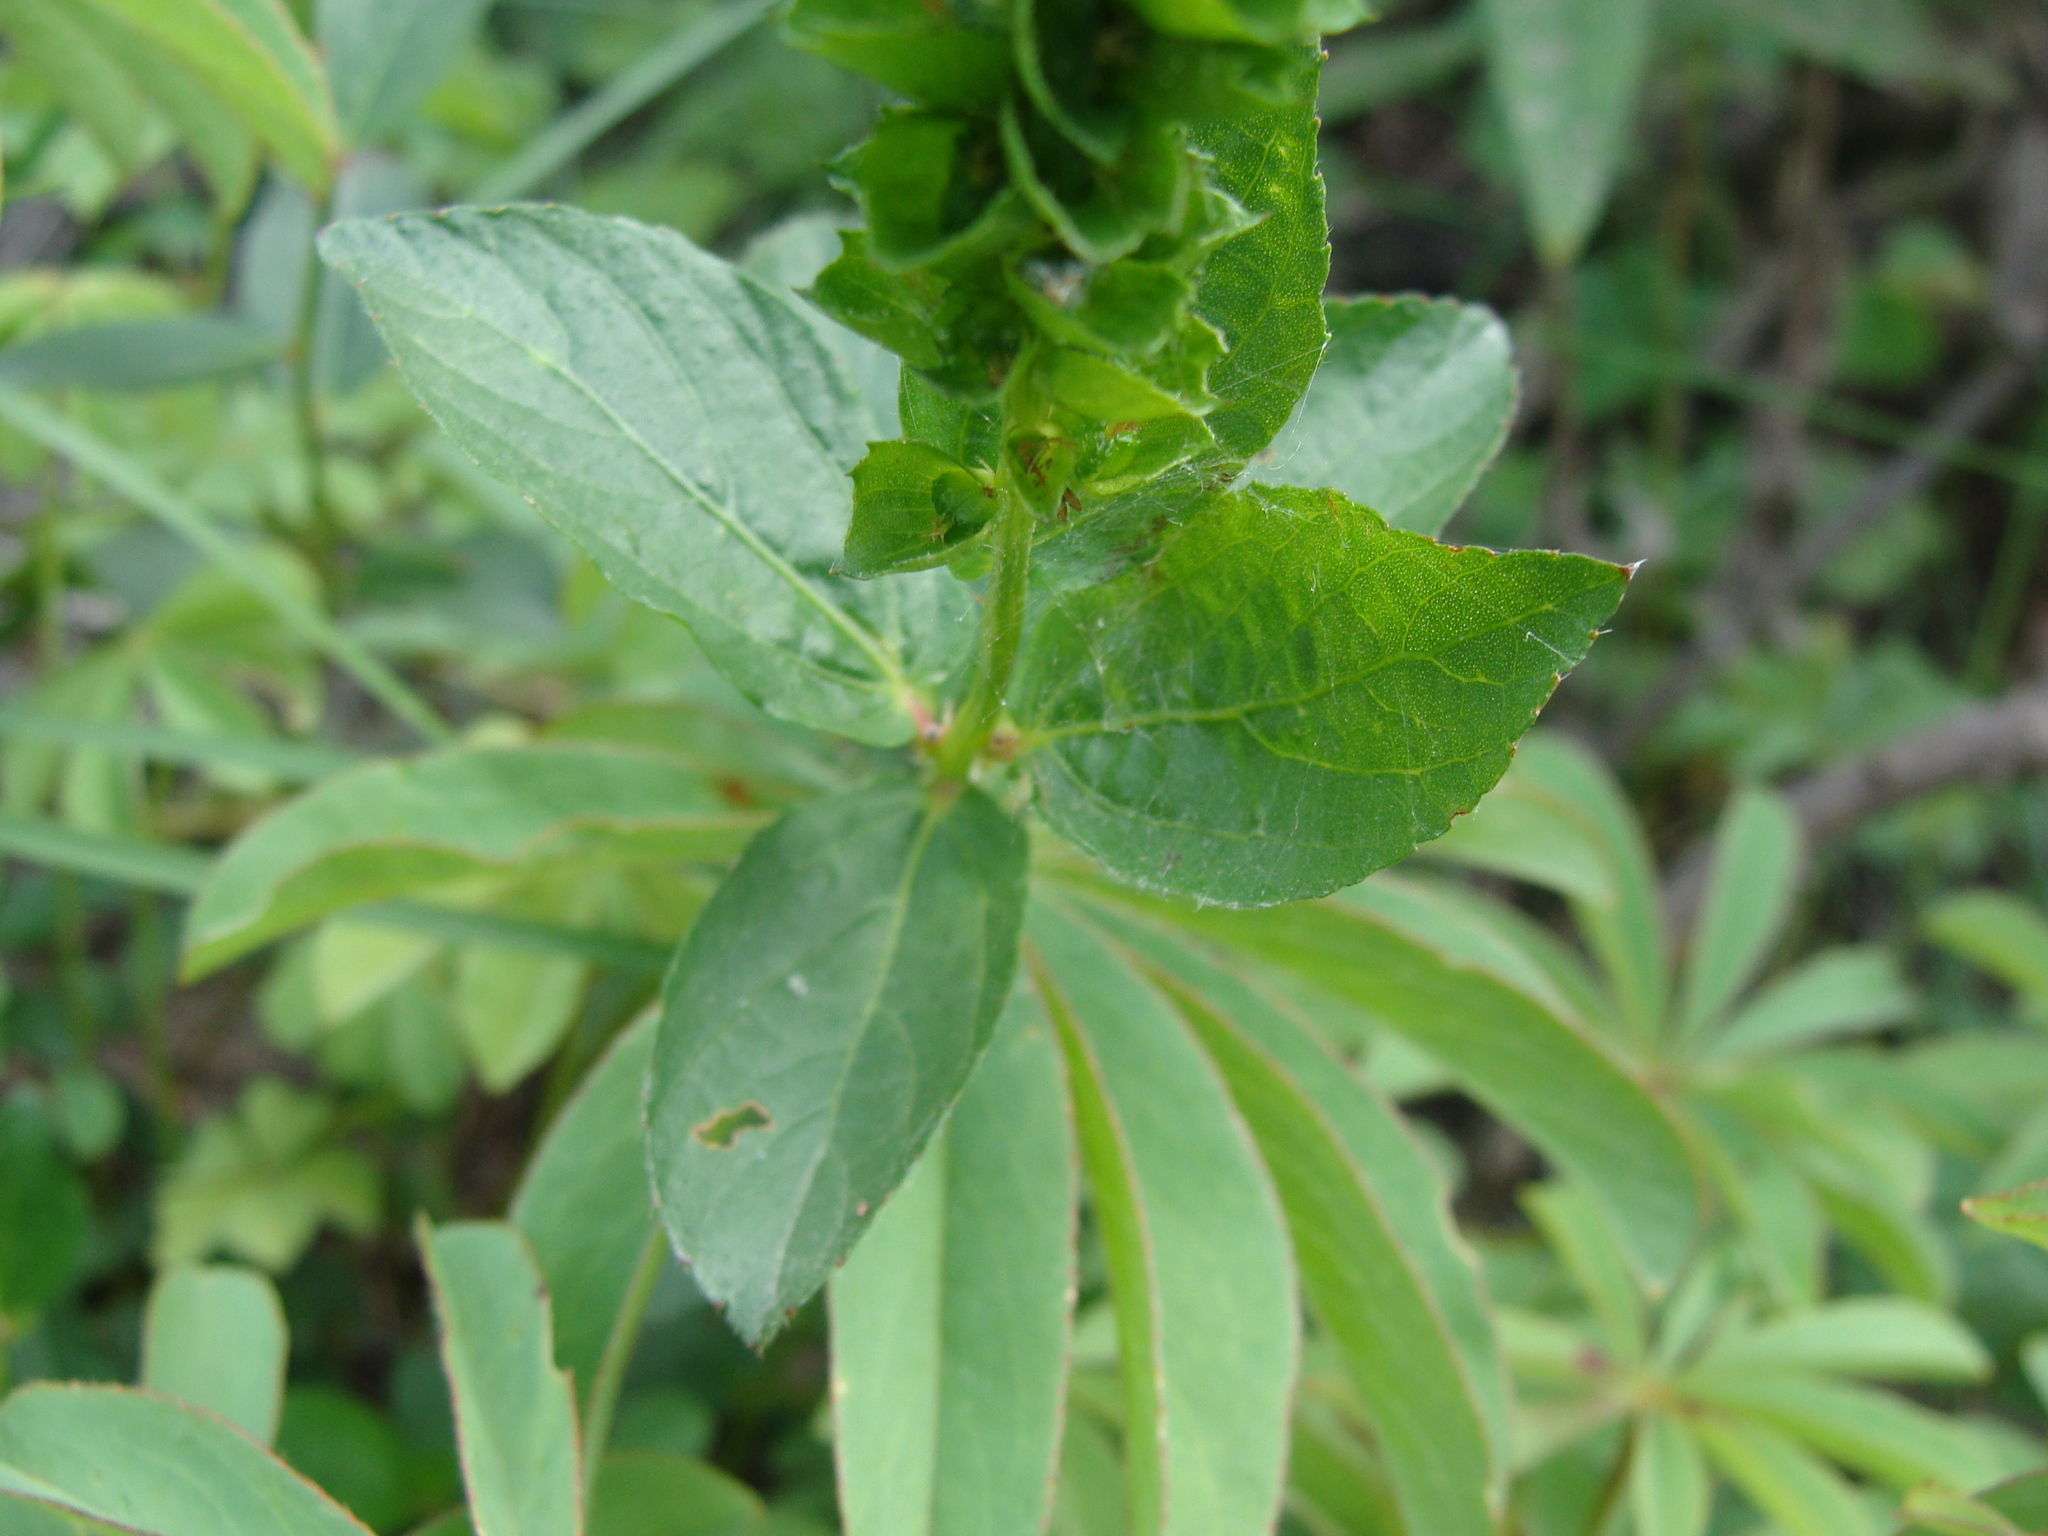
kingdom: Plantae
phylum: Tracheophyta
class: Magnoliopsida
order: Malpighiales
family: Euphorbiaceae
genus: Acalypha
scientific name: Acalypha ostryifolia
